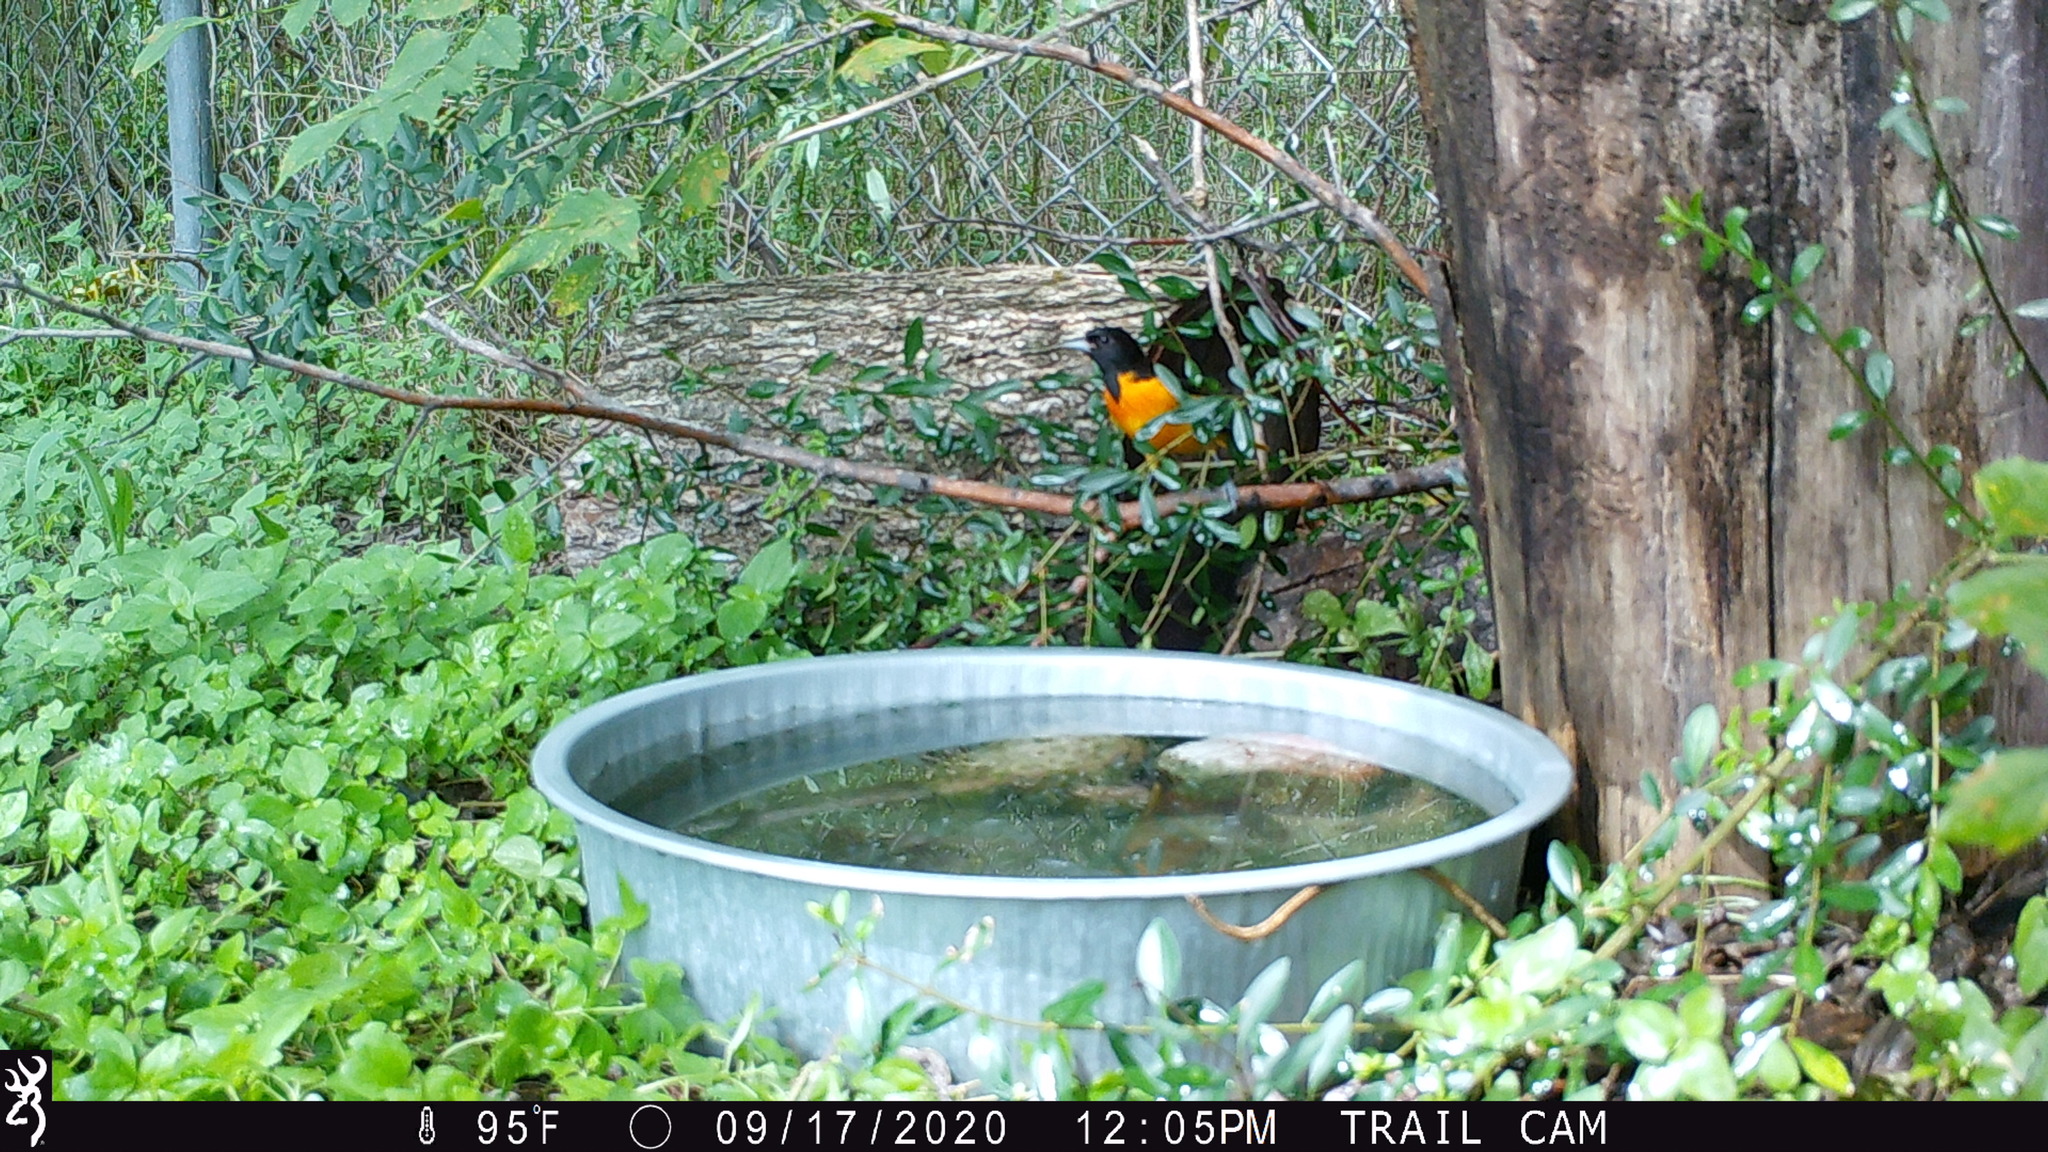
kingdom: Animalia
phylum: Chordata
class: Aves
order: Passeriformes
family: Icteridae
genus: Icterus
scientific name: Icterus galbula
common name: Baltimore oriole
